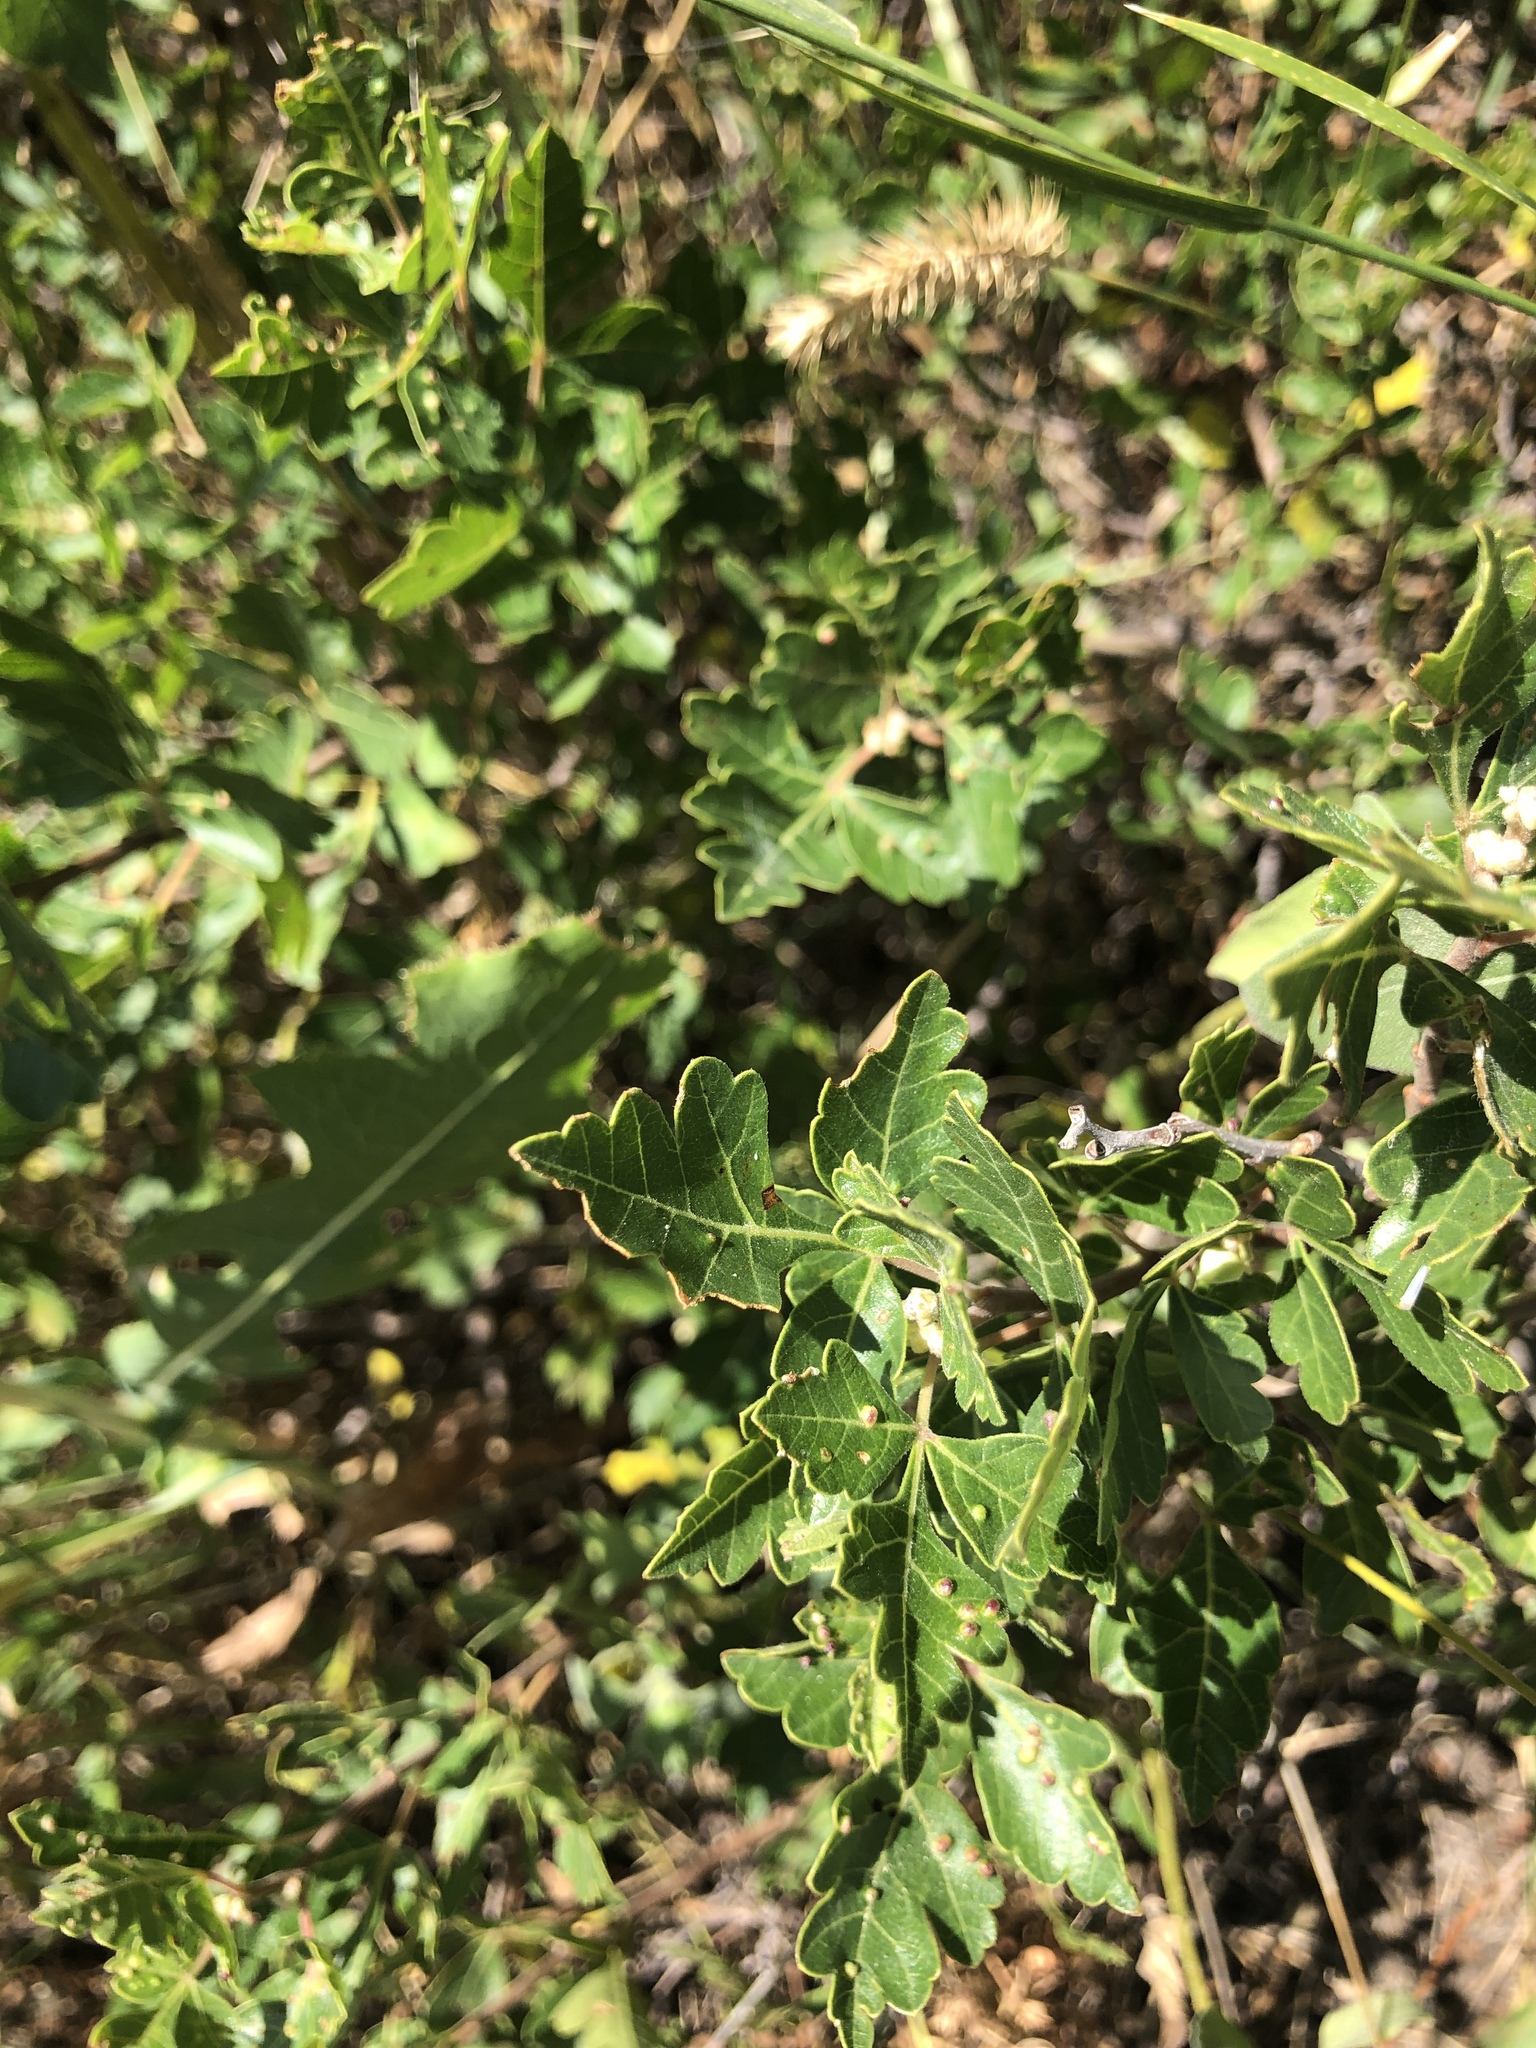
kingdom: Plantae
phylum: Tracheophyta
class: Magnoliopsida
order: Sapindales
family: Anacardiaceae
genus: Rhus
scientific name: Rhus aromatica
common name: Aromatic sumac
